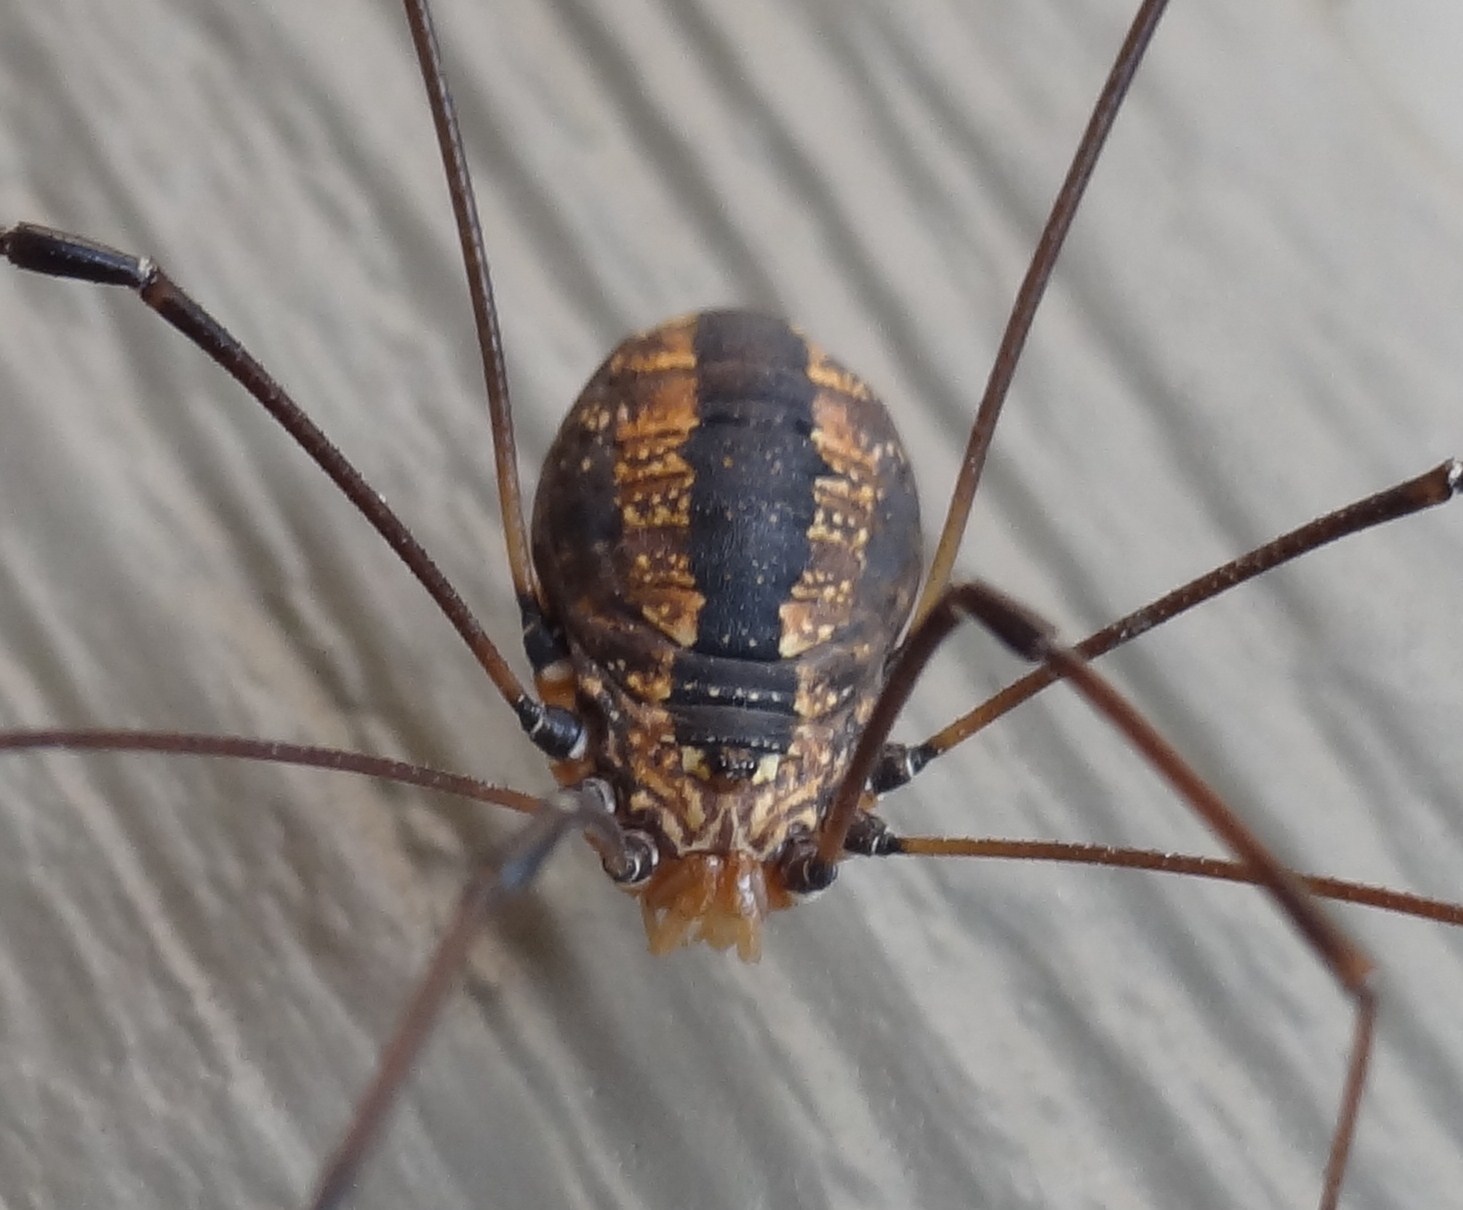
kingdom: Animalia
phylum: Arthropoda
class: Arachnida
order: Opiliones
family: Sclerosomatidae
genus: Leiobunum
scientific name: Leiobunum vittatum
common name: Eastern harvestman
